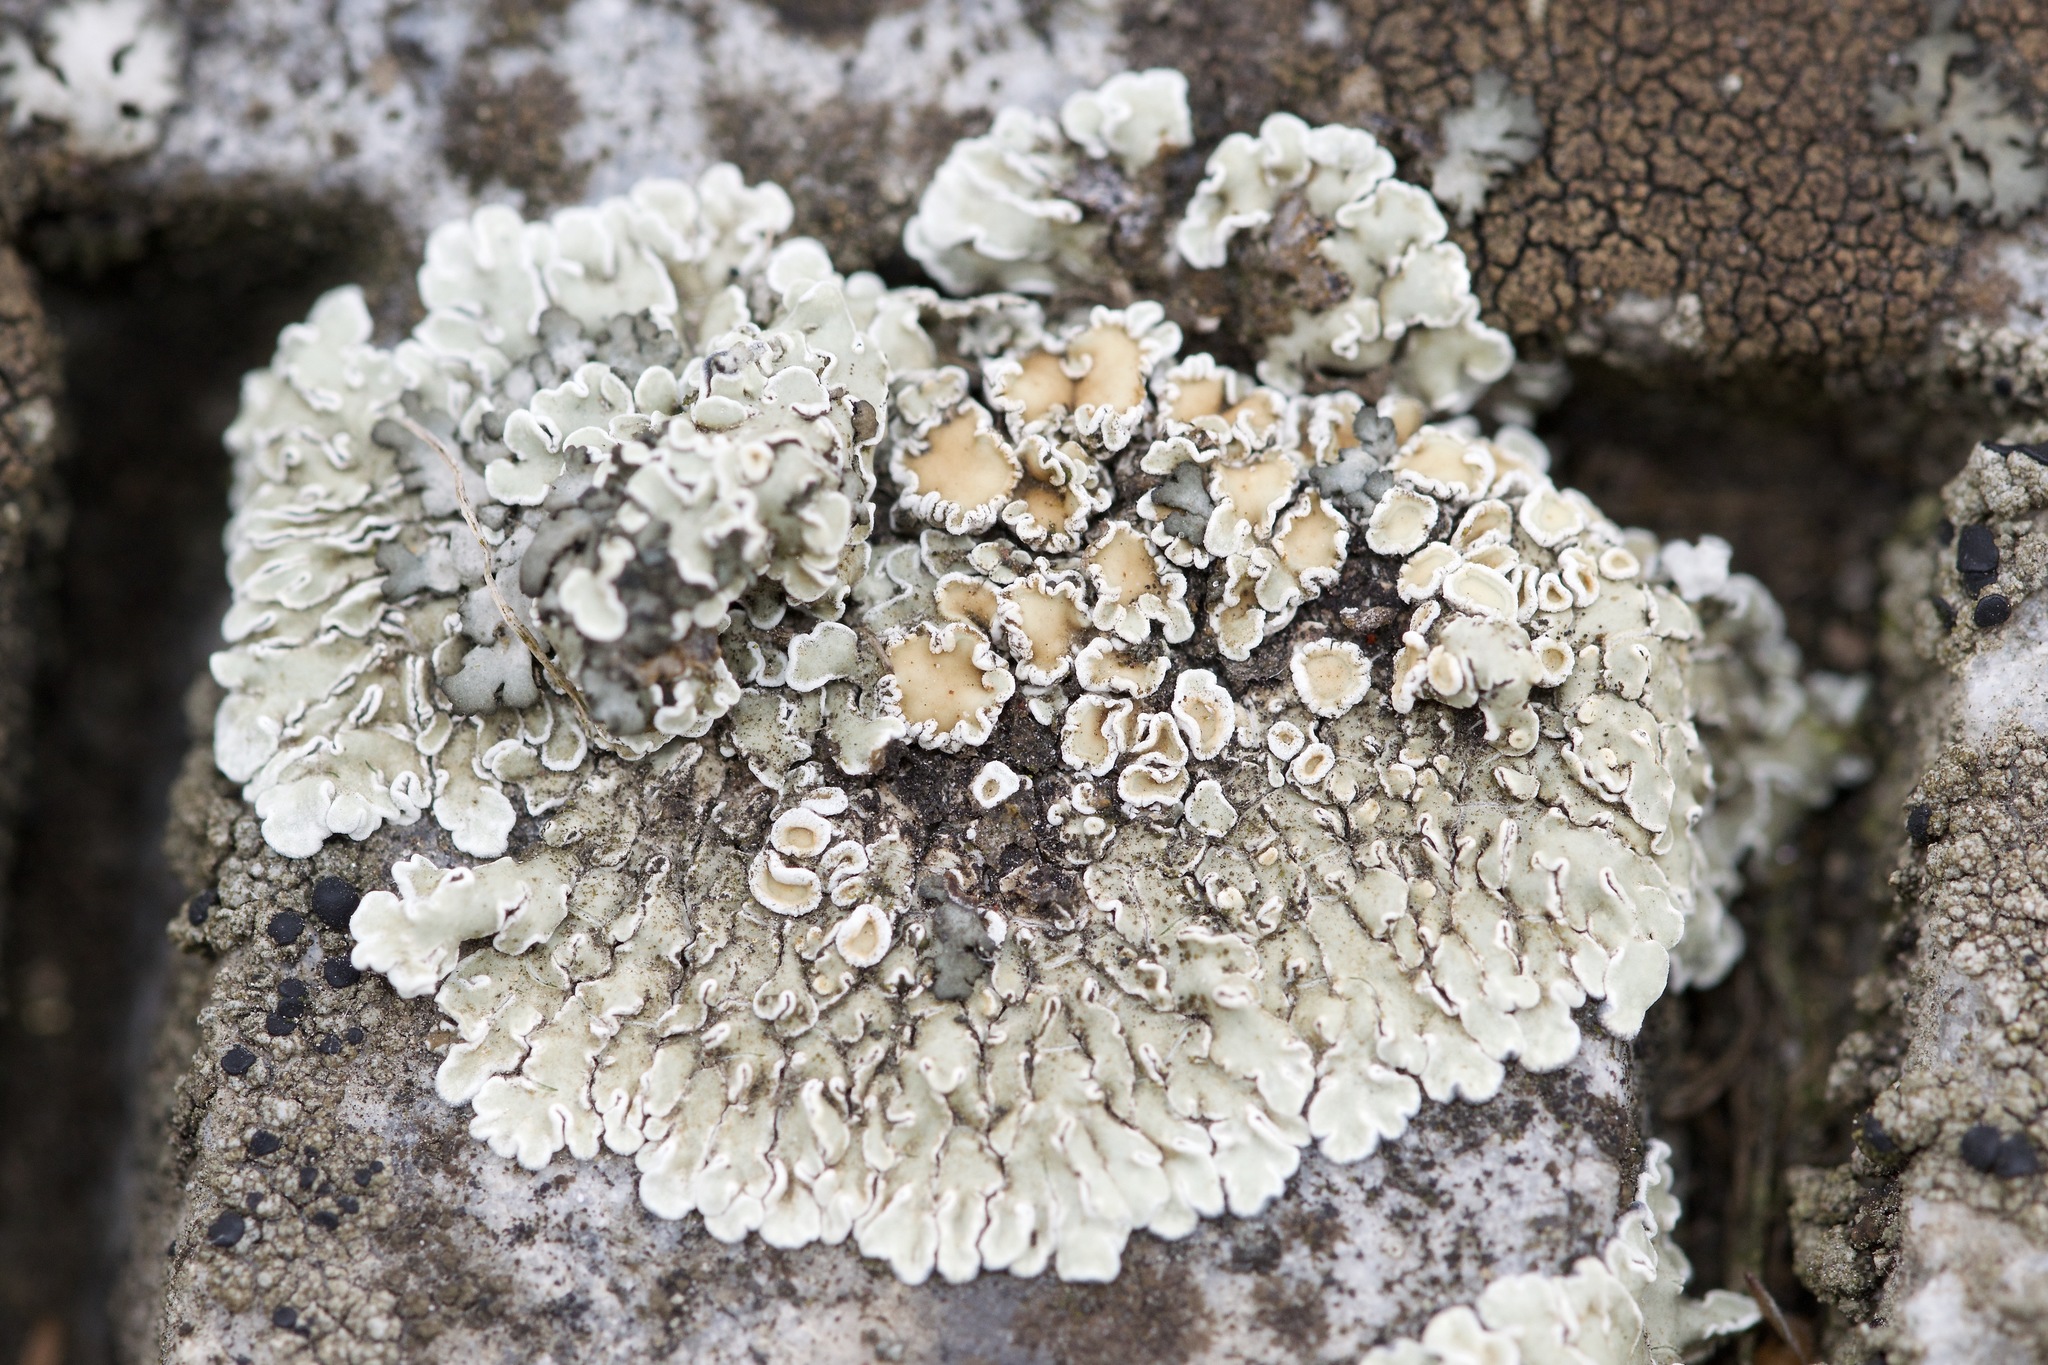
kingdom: Fungi
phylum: Ascomycota
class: Lecanoromycetes
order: Lecanorales
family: Lecanoraceae
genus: Protoparmeliopsis
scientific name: Protoparmeliopsis muralis
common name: Stonewall rim lichen
